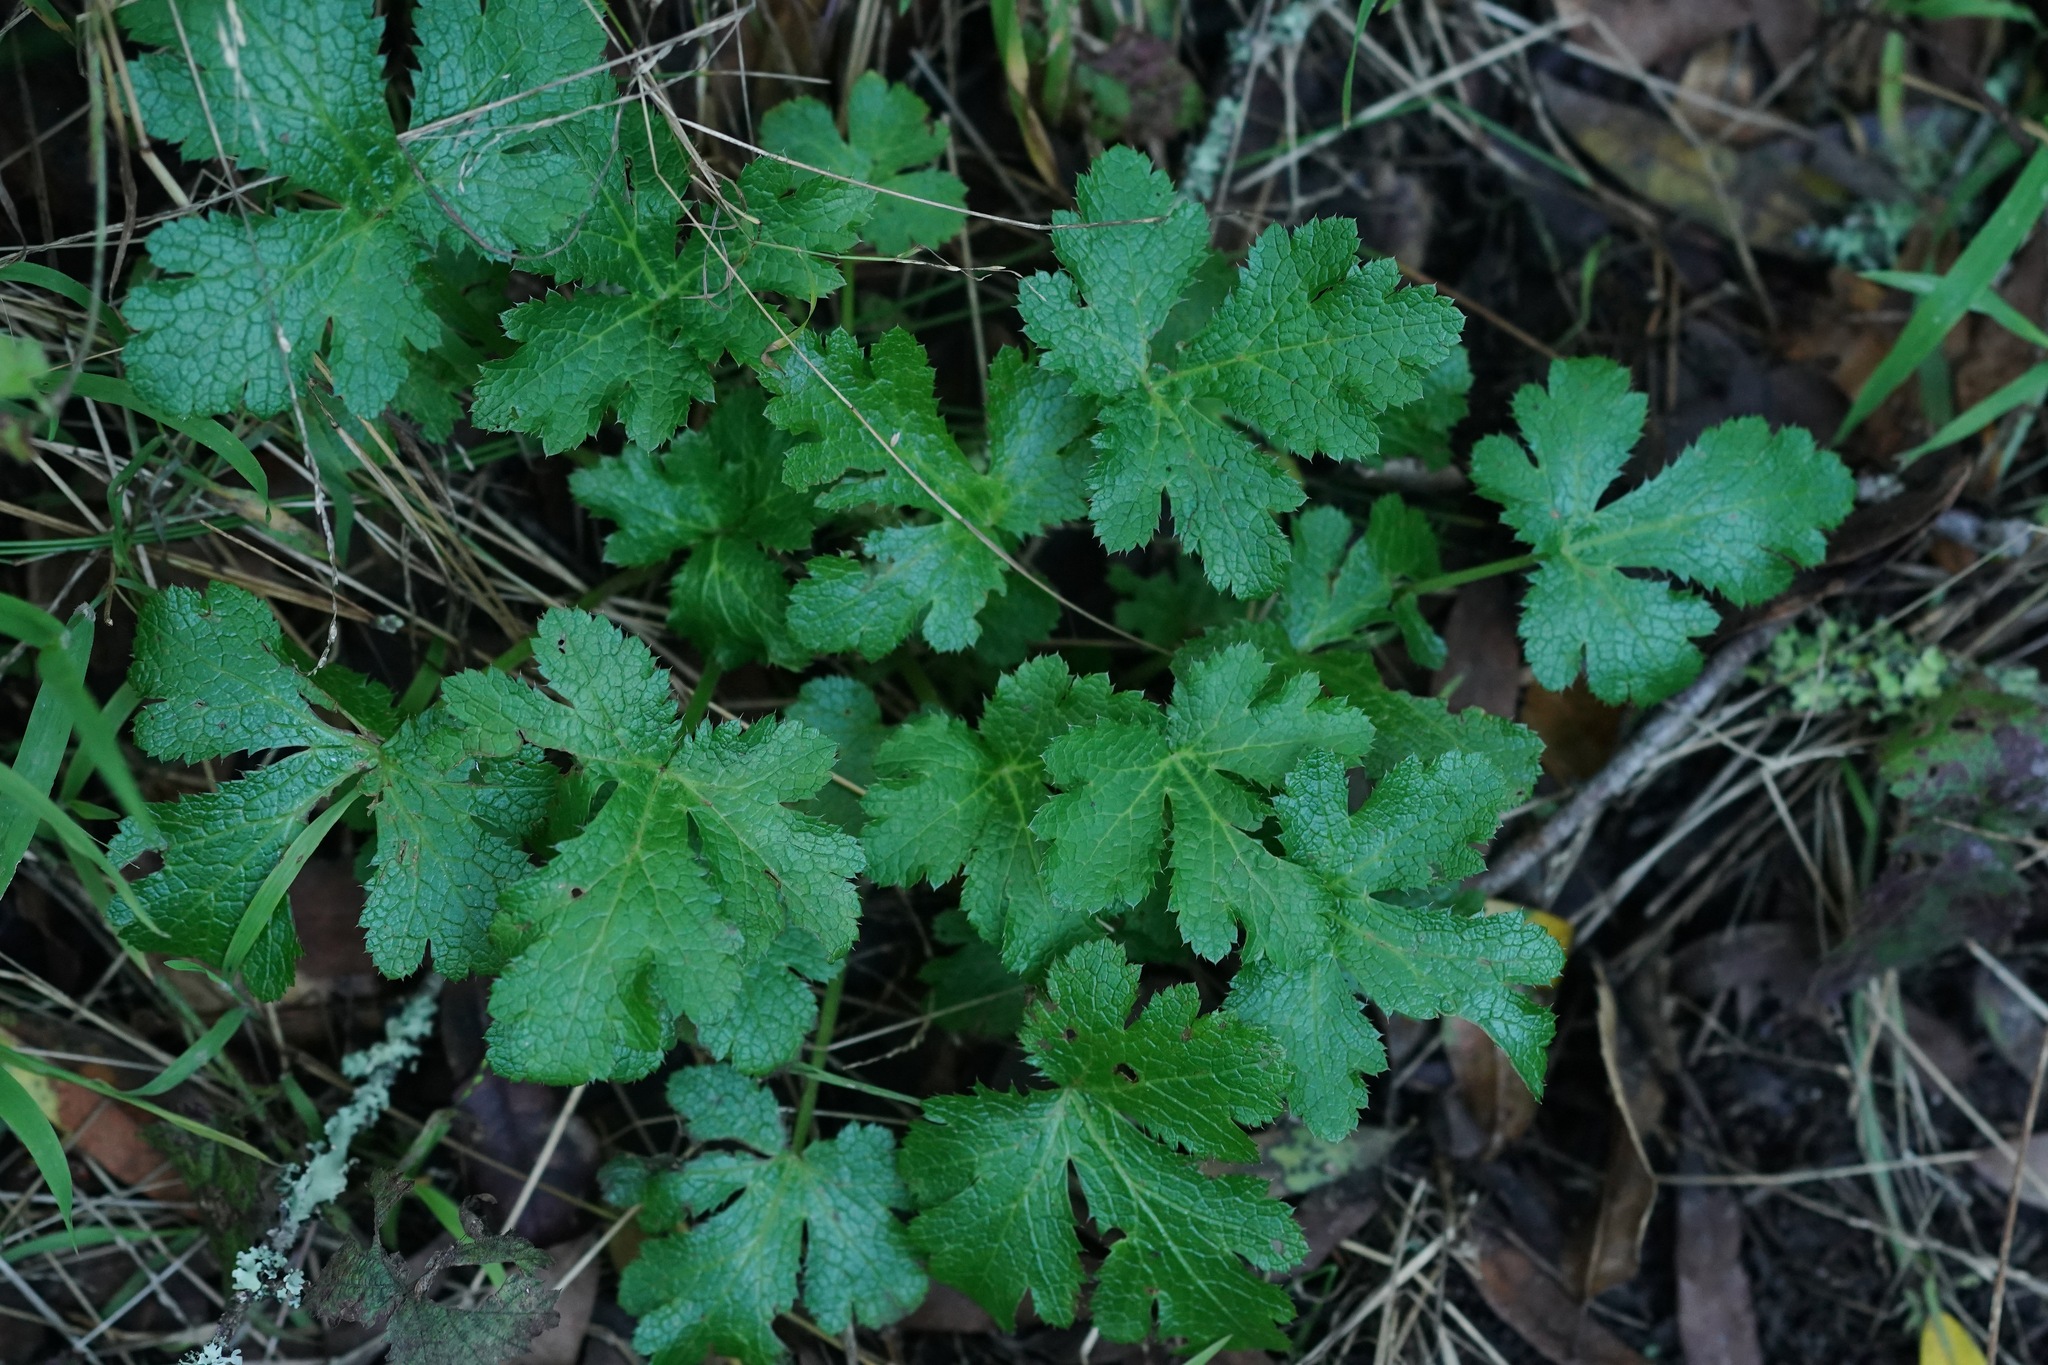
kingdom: Plantae
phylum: Tracheophyta
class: Magnoliopsida
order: Apiales
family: Apiaceae
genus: Sanicula
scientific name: Sanicula crassicaulis
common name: Western snakeroot
